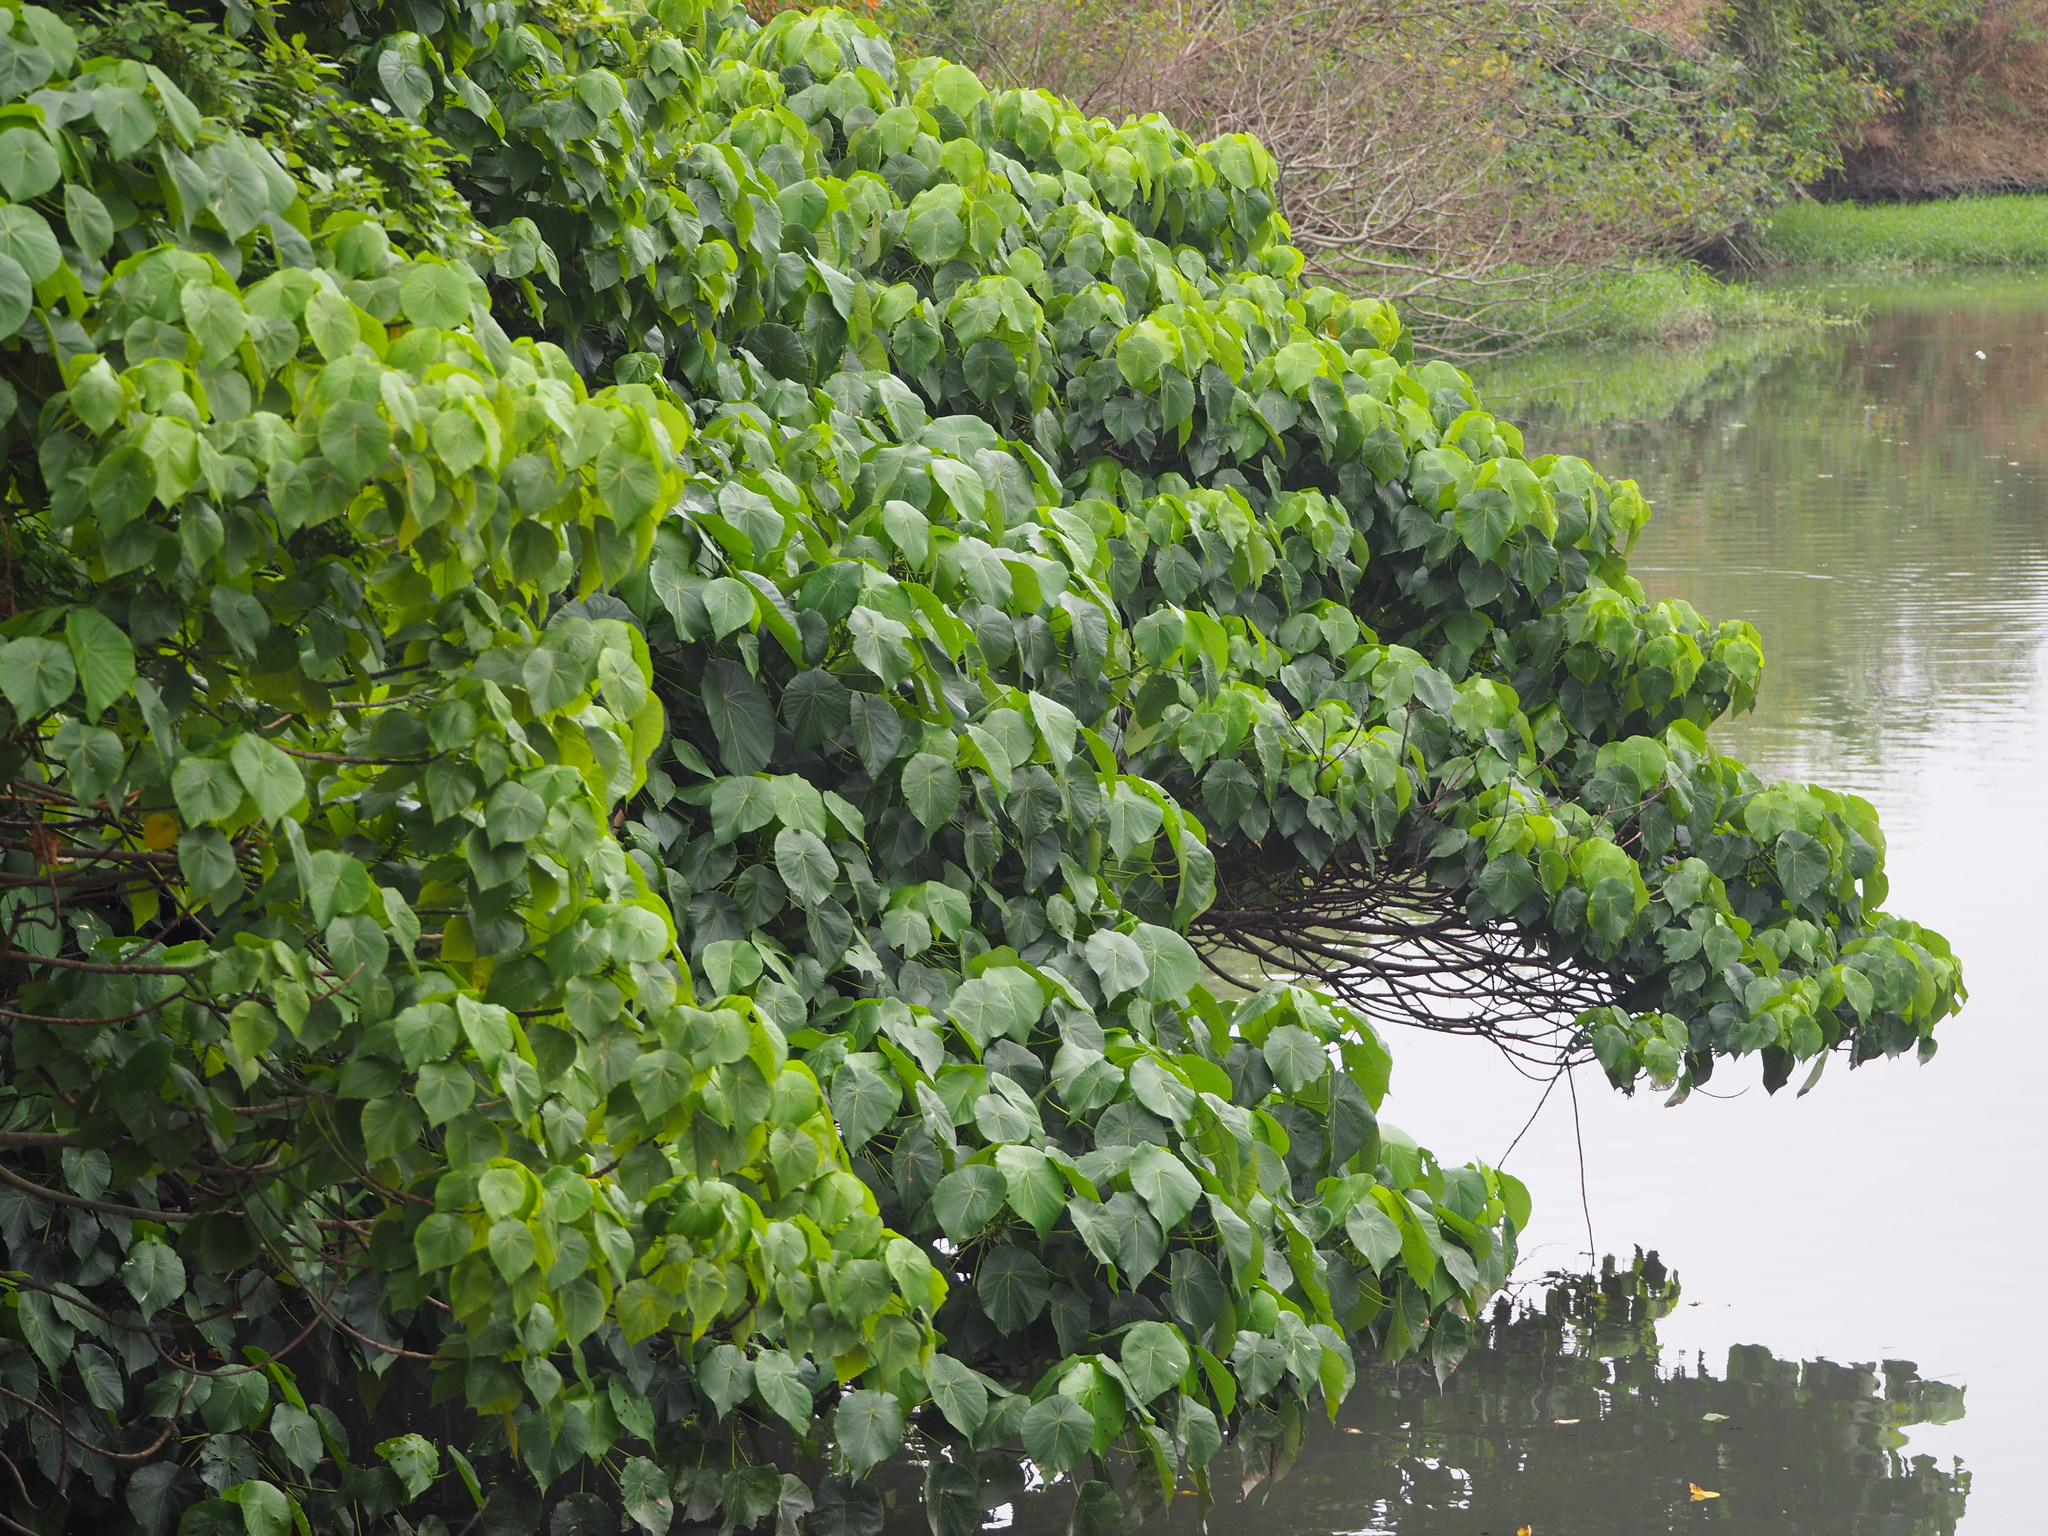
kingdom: Plantae
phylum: Tracheophyta
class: Magnoliopsida
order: Malpighiales
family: Euphorbiaceae
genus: Macaranga
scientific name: Macaranga tanarius
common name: Parasol leaf tree
